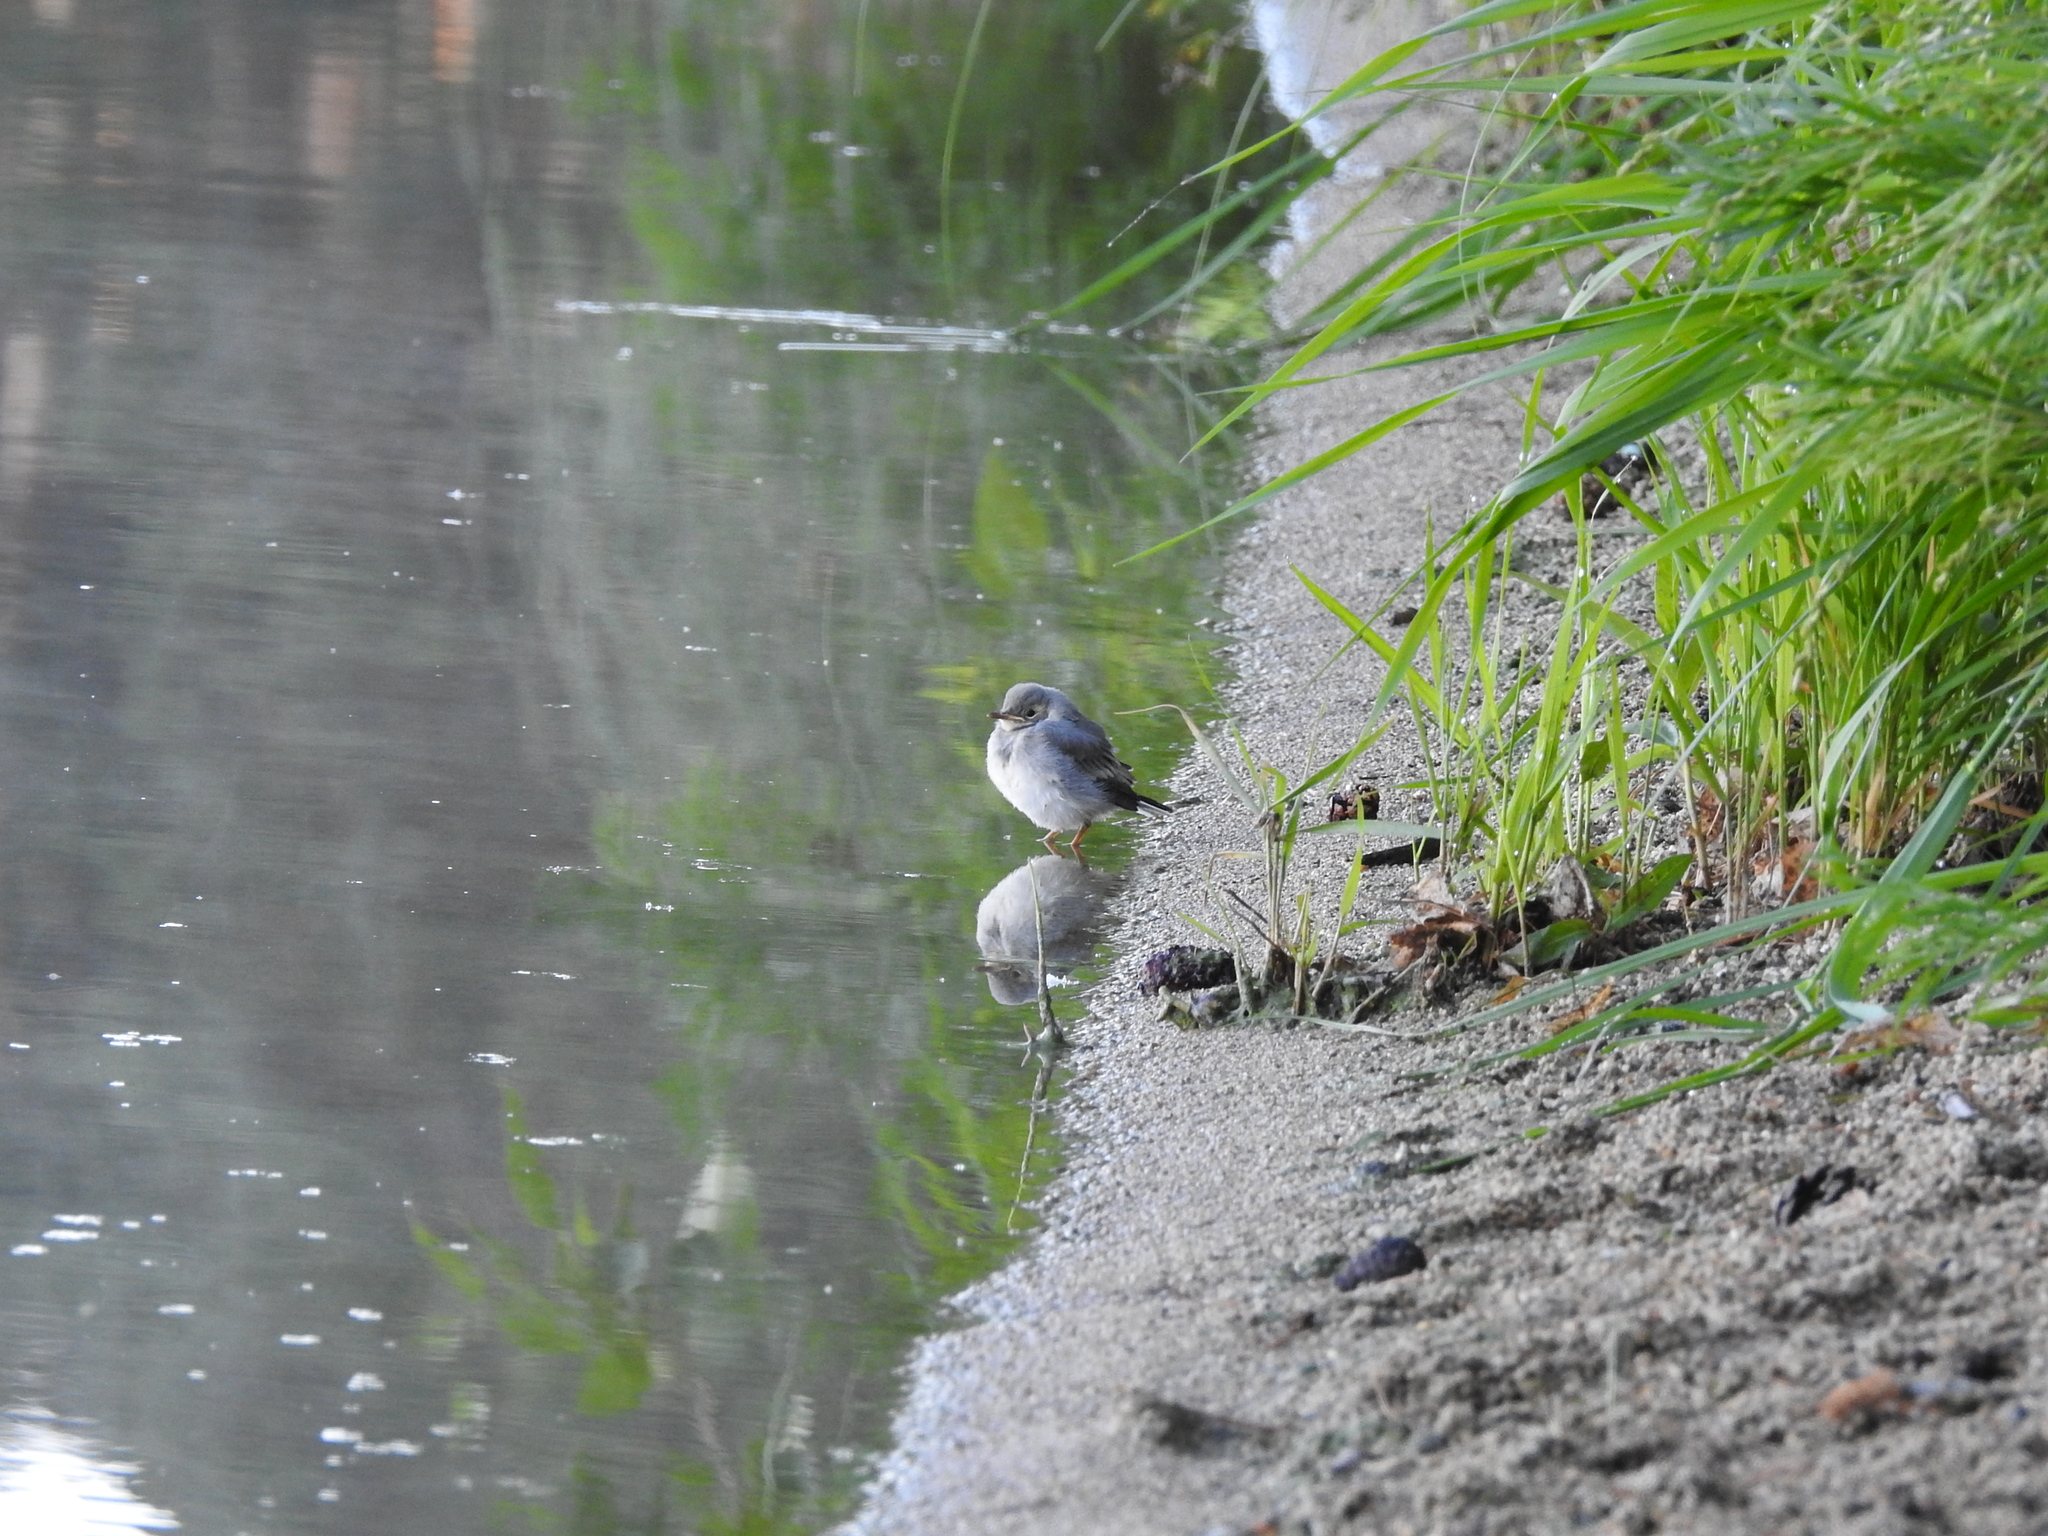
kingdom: Animalia
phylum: Chordata
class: Aves
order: Passeriformes
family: Motacillidae
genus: Motacilla
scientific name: Motacilla alba
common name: White wagtail
